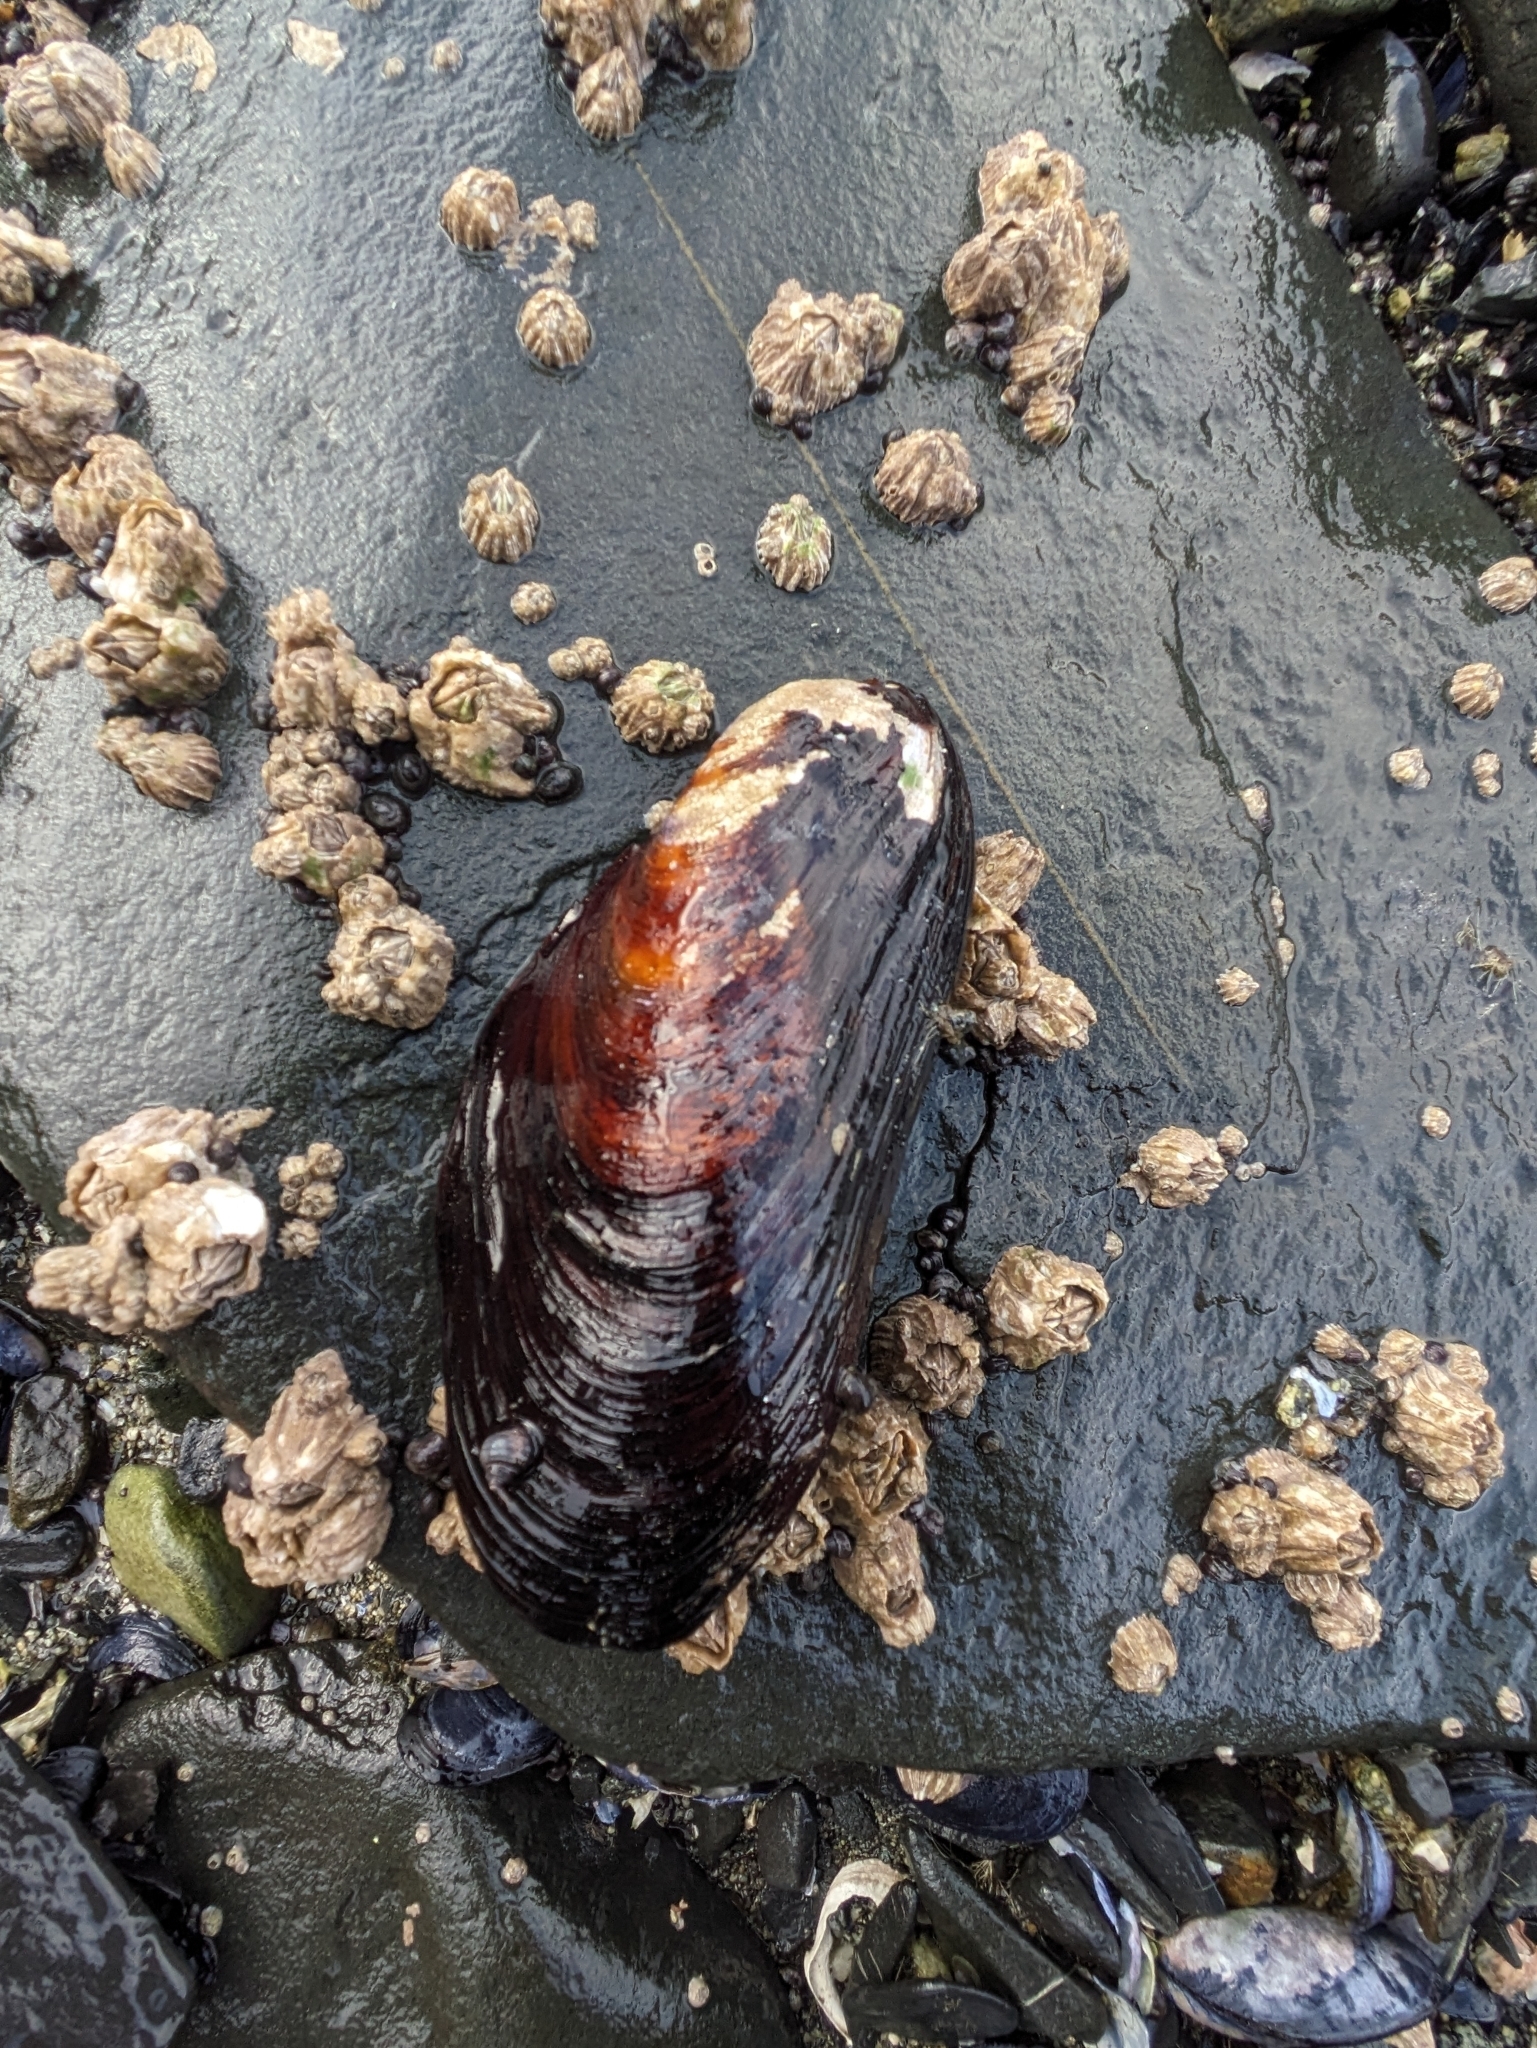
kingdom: Animalia
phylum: Mollusca
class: Bivalvia
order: Mytilida
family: Mytilidae
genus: Modiolus
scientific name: Modiolus modiolus
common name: Horse-mussel
